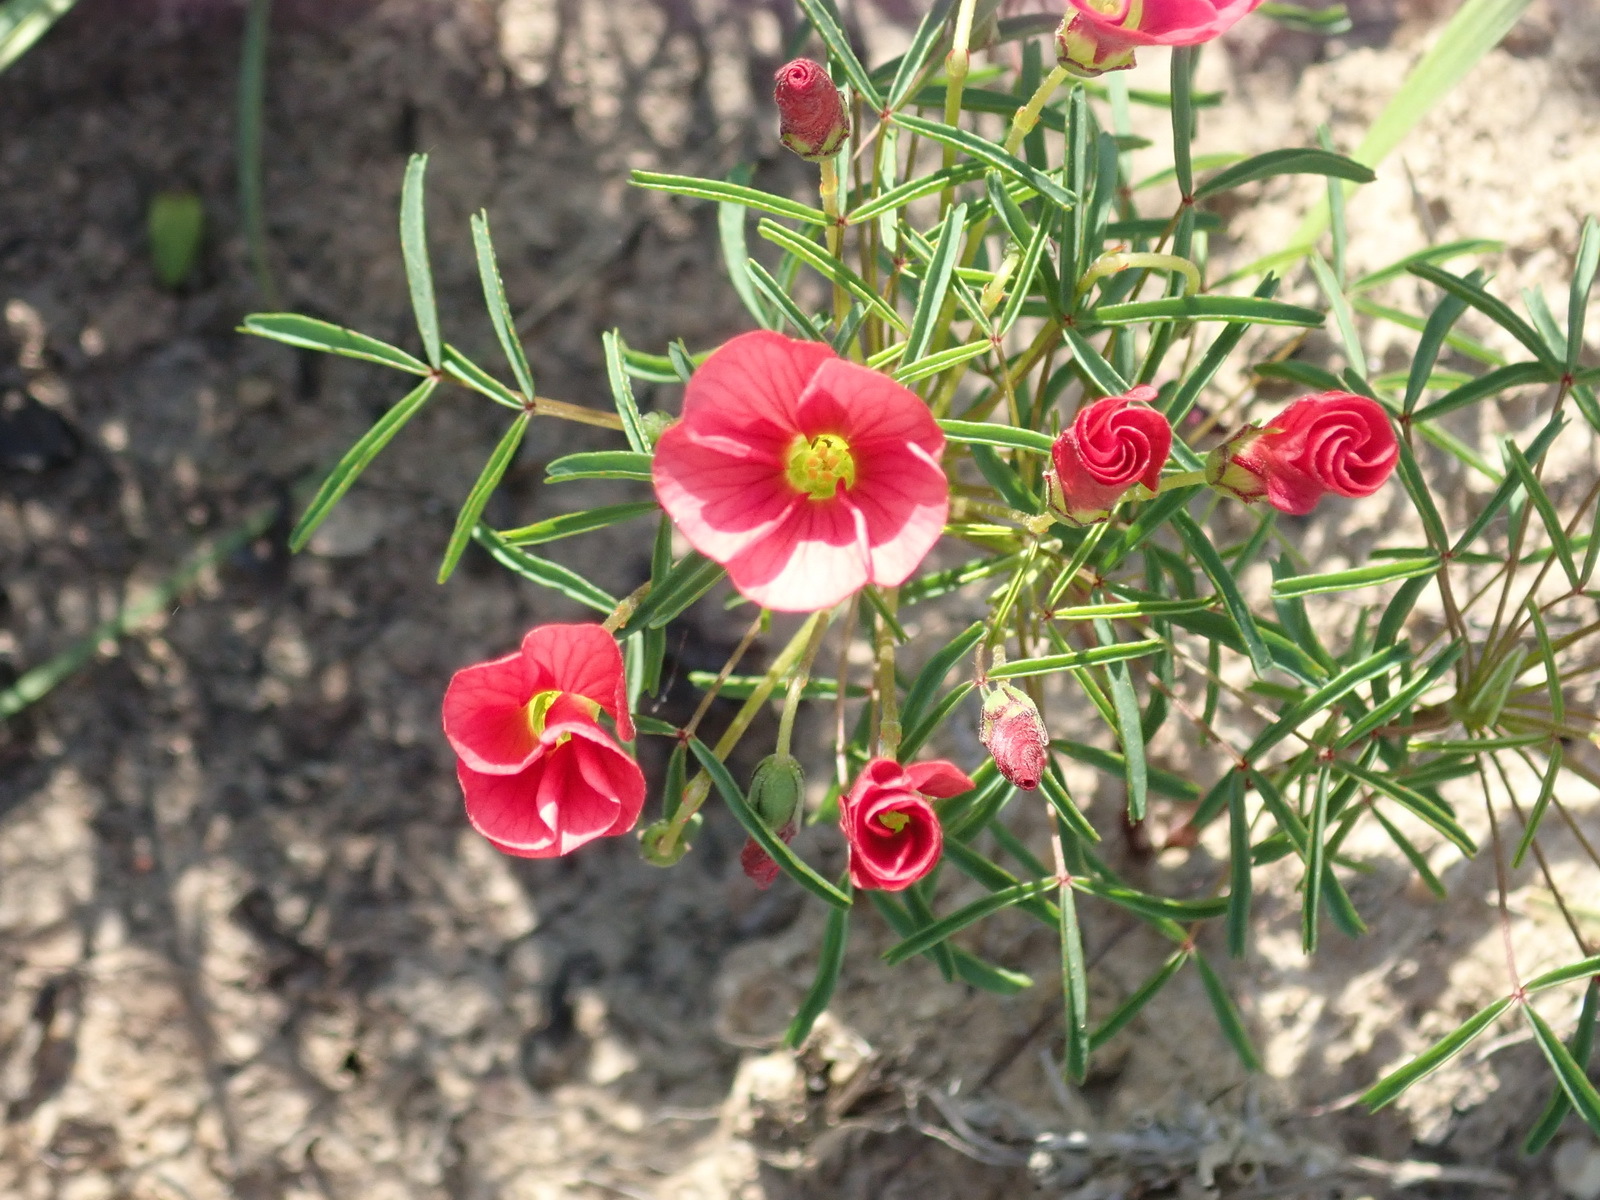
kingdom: Plantae
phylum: Tracheophyta
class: Magnoliopsida
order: Oxalidales
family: Oxalidaceae
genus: Oxalis
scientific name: Oxalis pendulifolia
